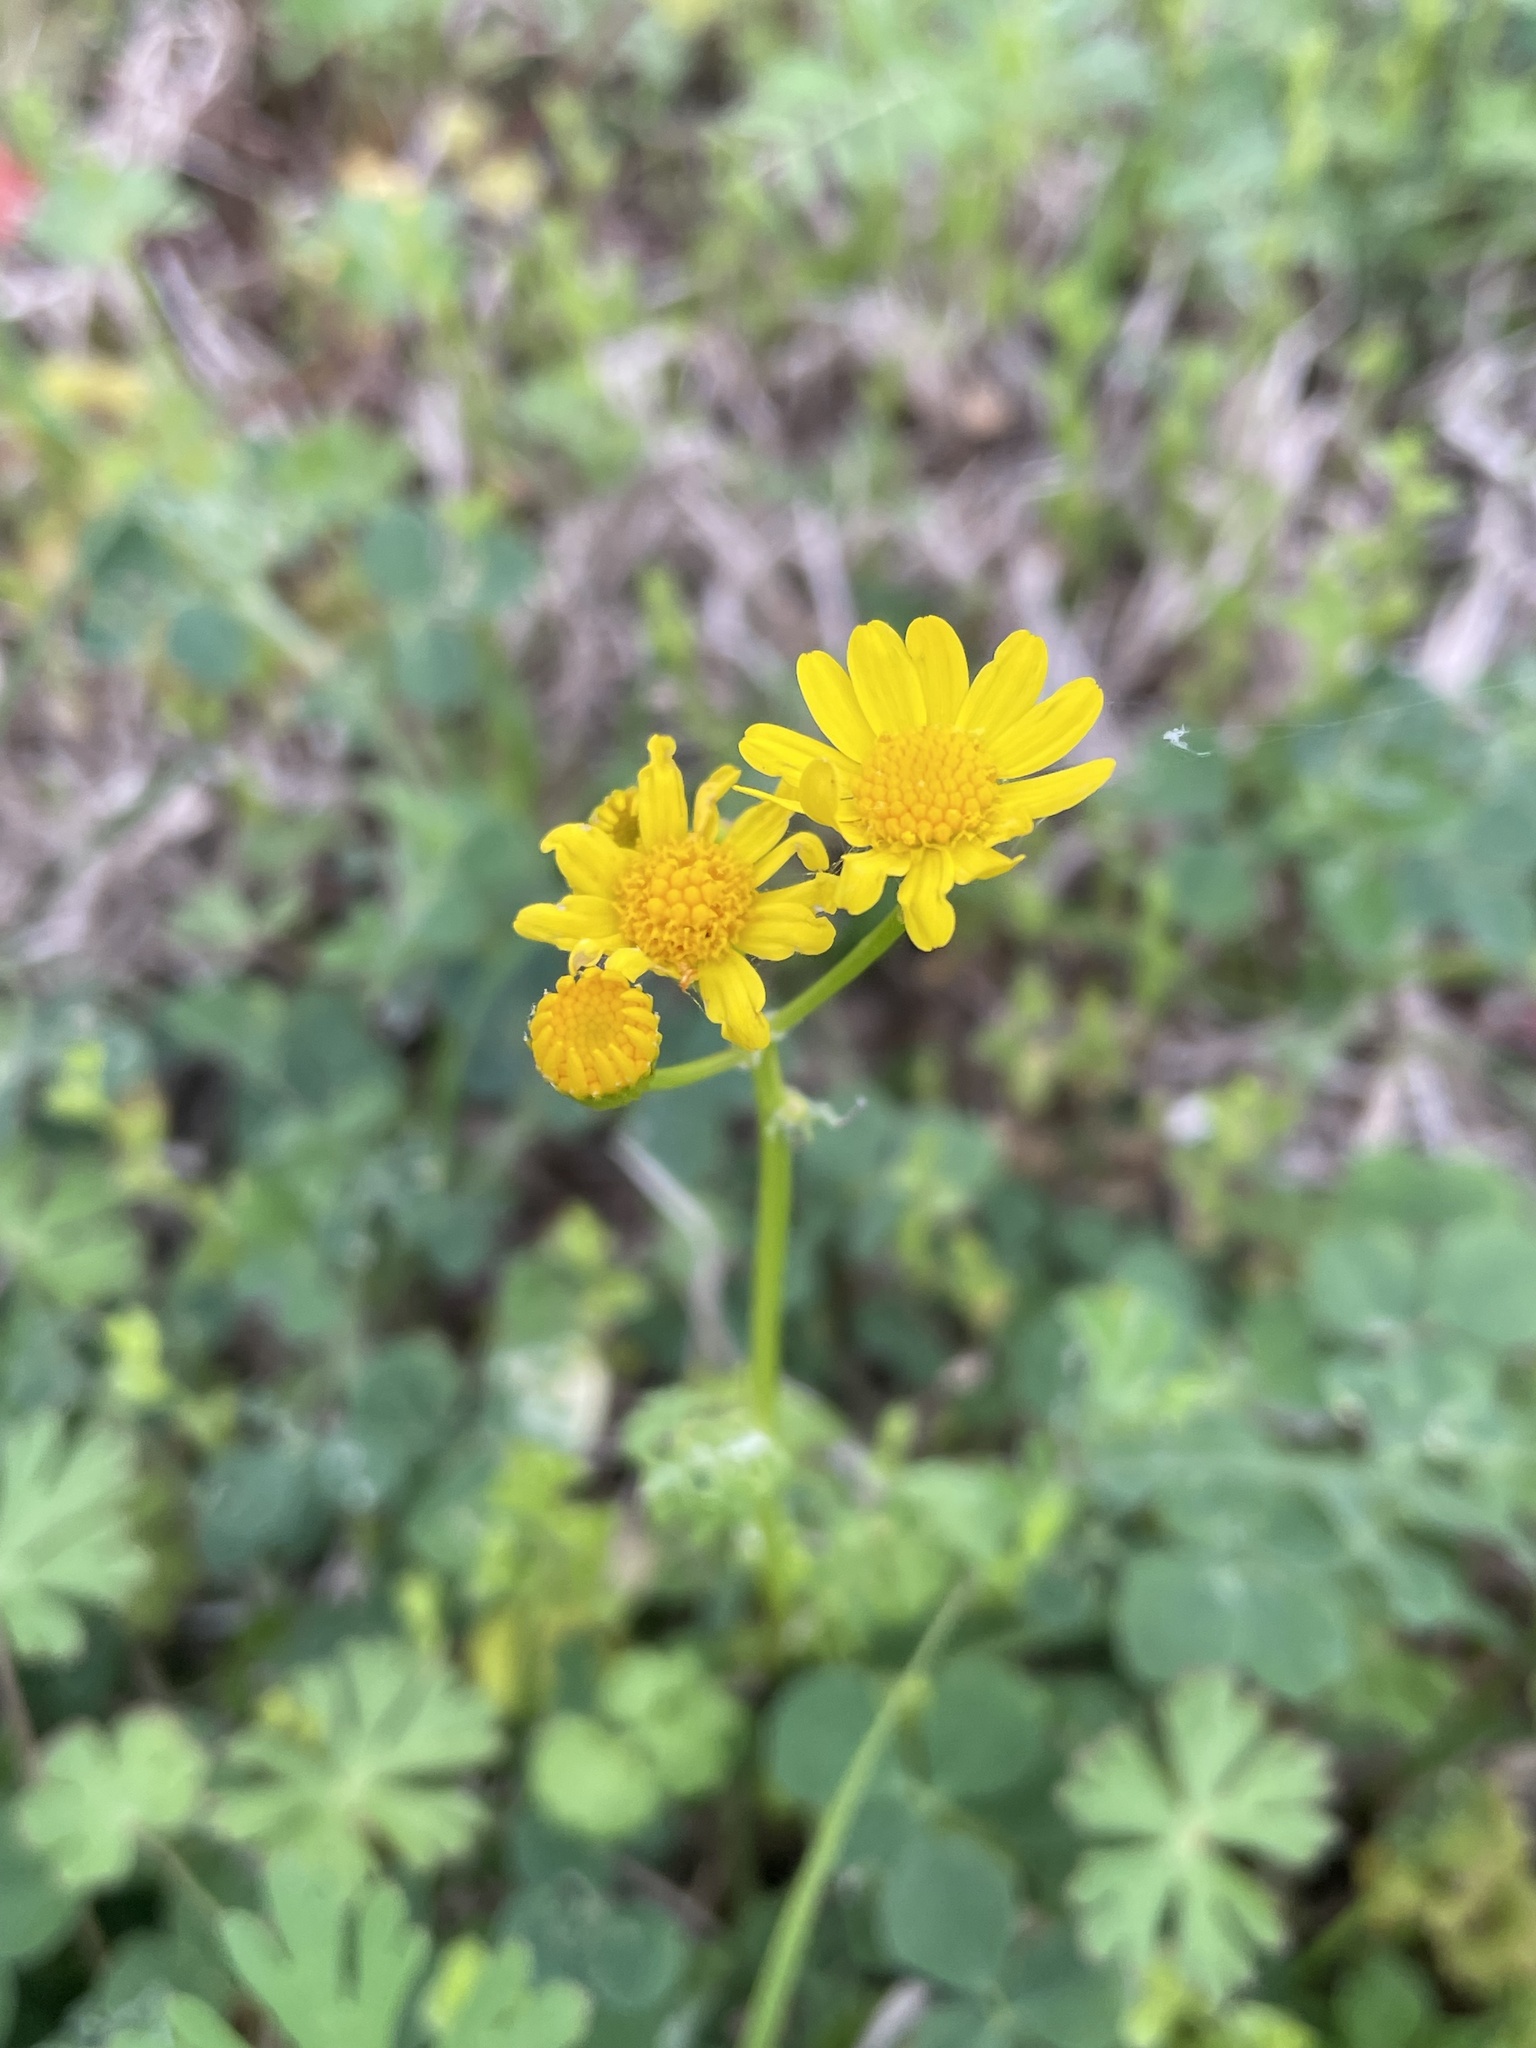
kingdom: Plantae
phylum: Tracheophyta
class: Magnoliopsida
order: Asterales
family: Asteraceae
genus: Packera
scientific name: Packera tampicana
